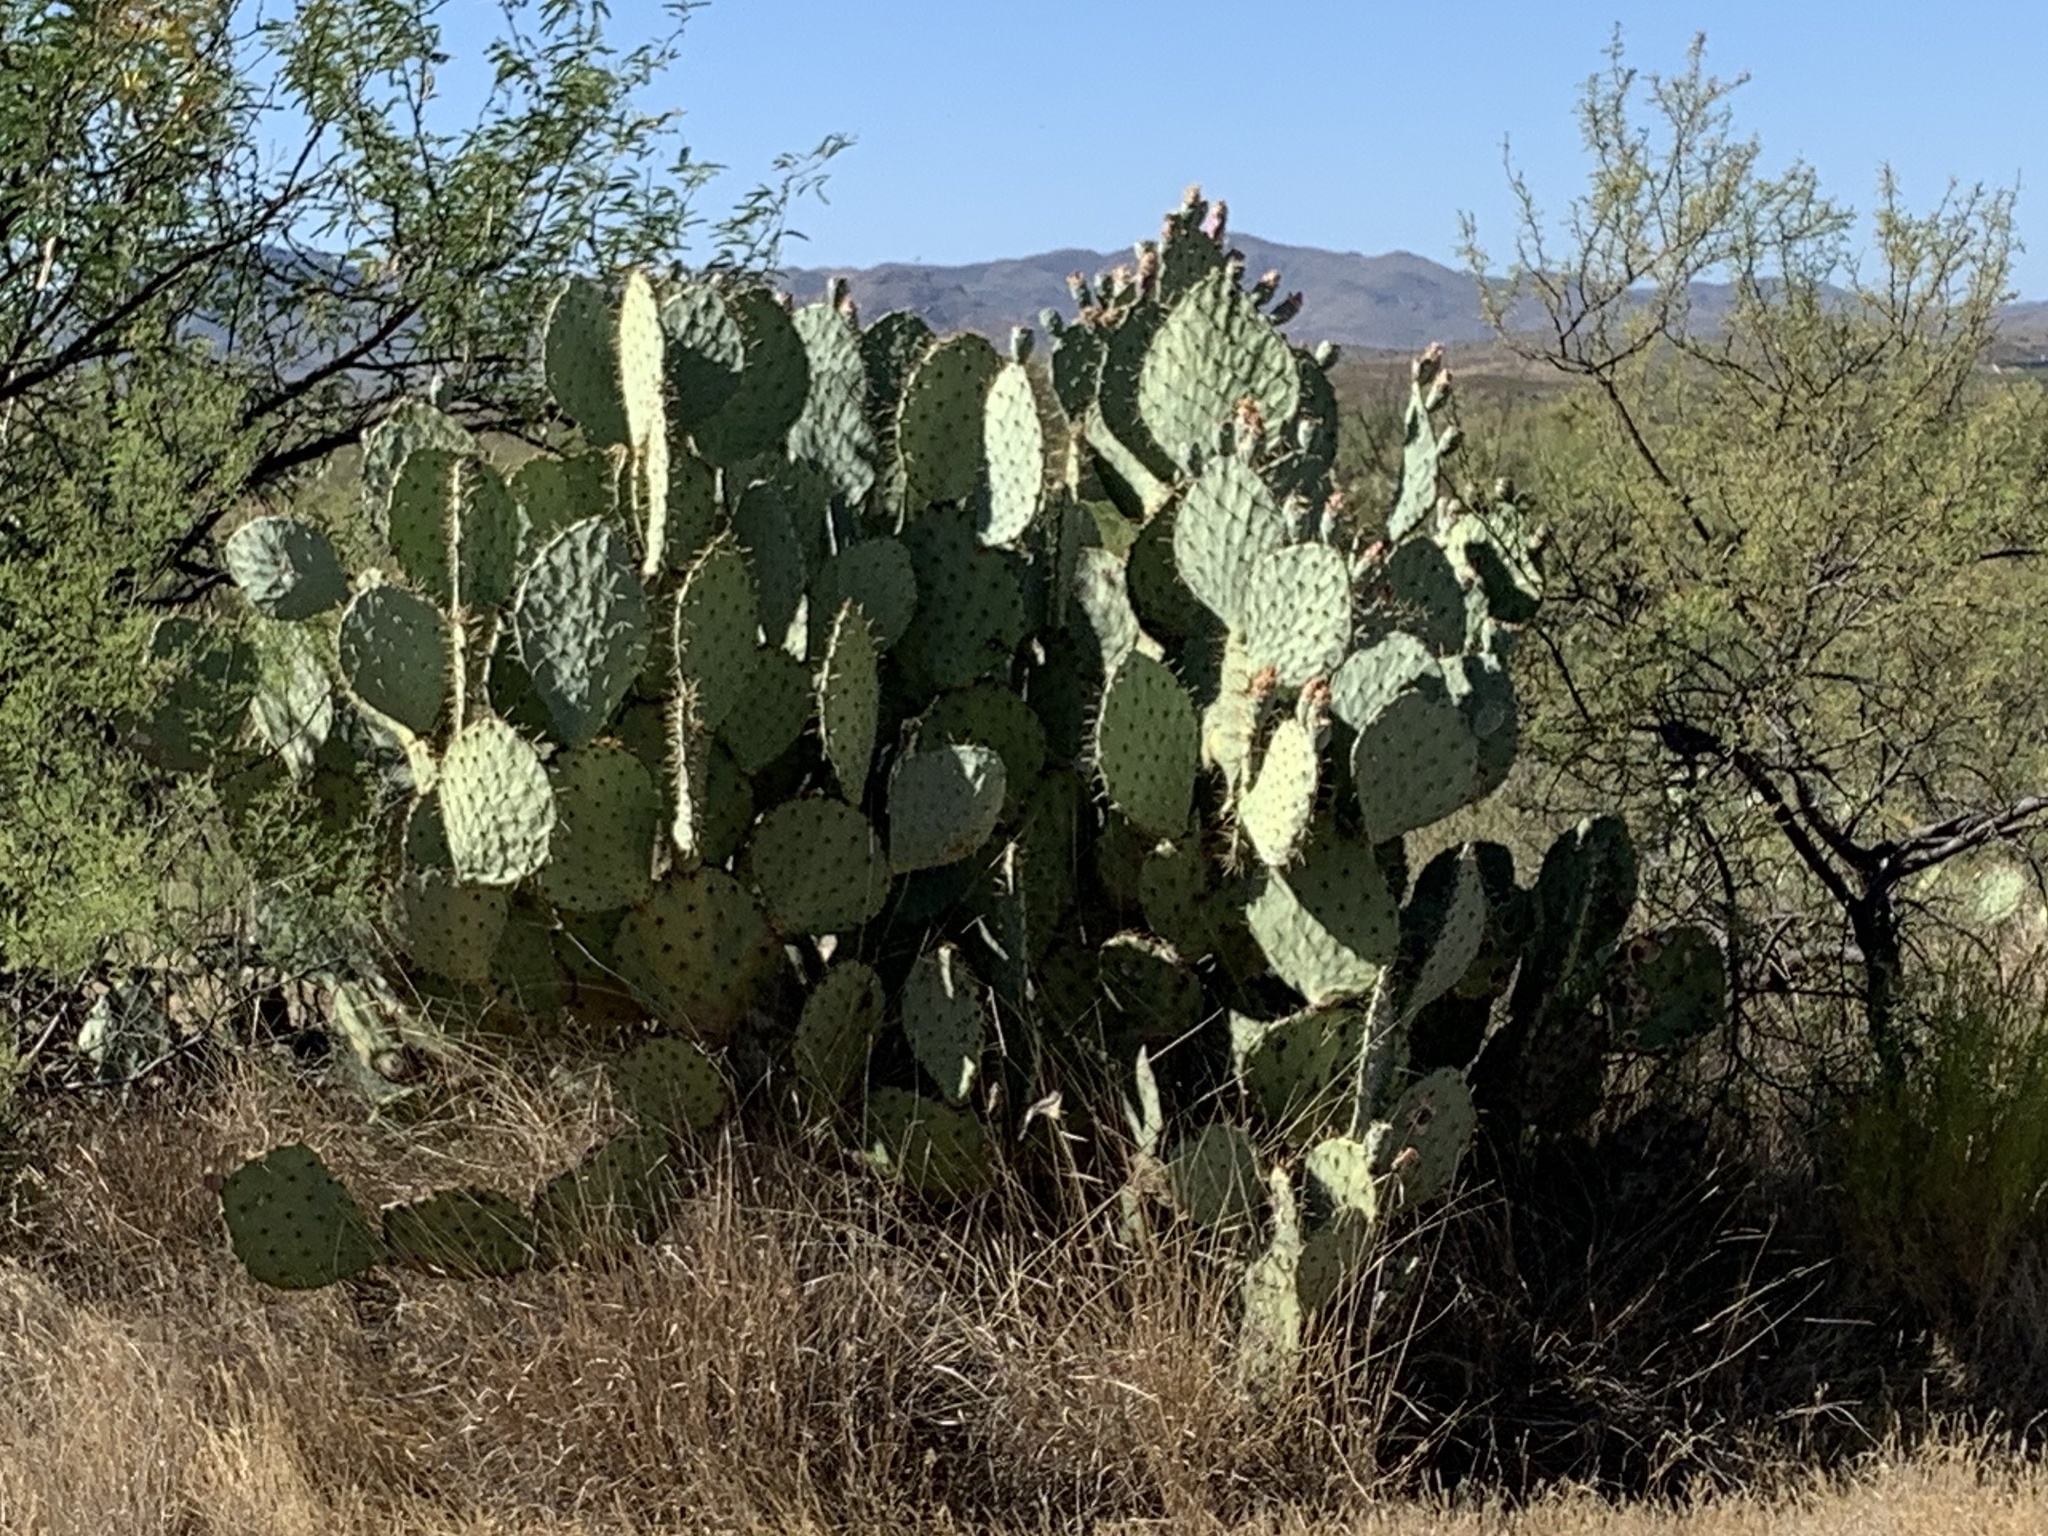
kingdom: Plantae
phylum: Tracheophyta
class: Magnoliopsida
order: Caryophyllales
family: Cactaceae
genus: Opuntia
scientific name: Opuntia engelmannii
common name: Cactus-apple
